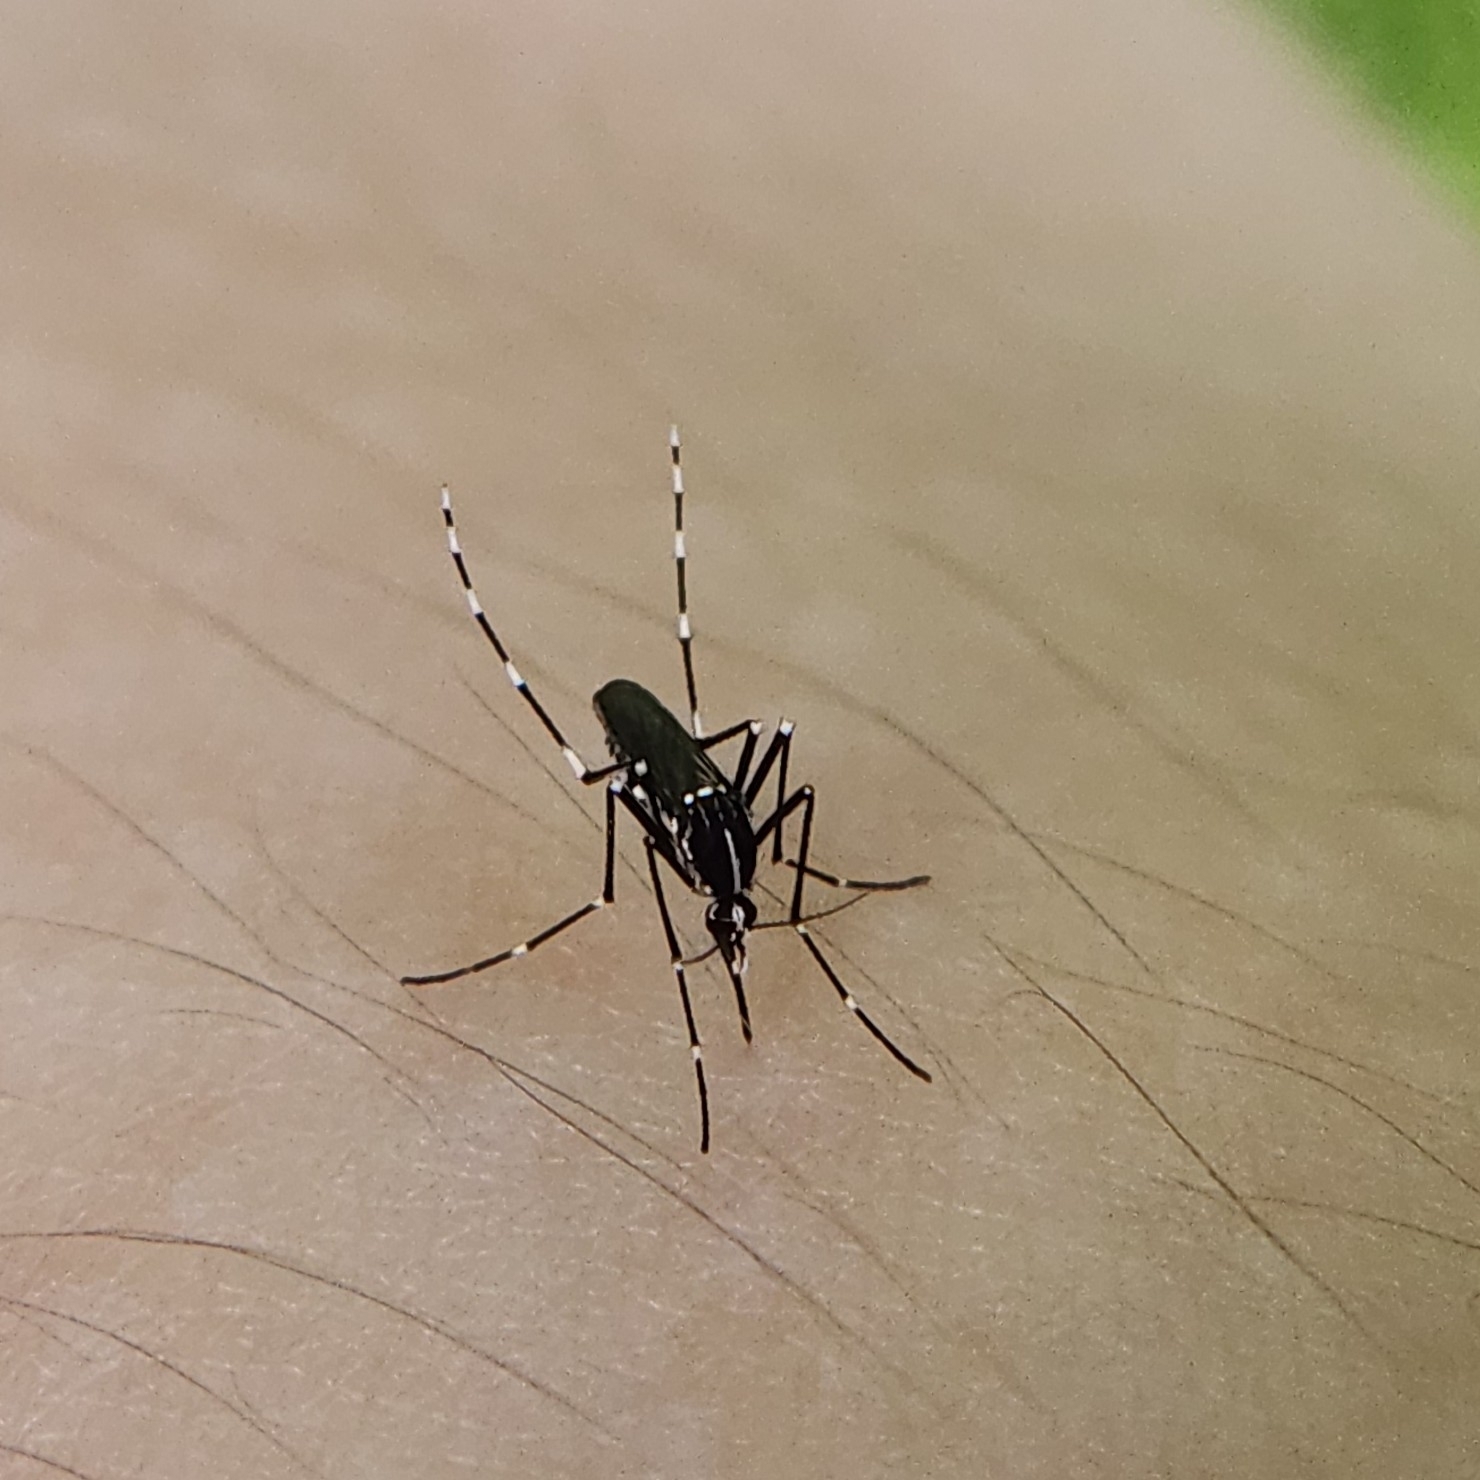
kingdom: Animalia
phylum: Arthropoda
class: Insecta
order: Diptera
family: Culicidae
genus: Aedes
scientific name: Aedes albopictus
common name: Tiger mosquito
